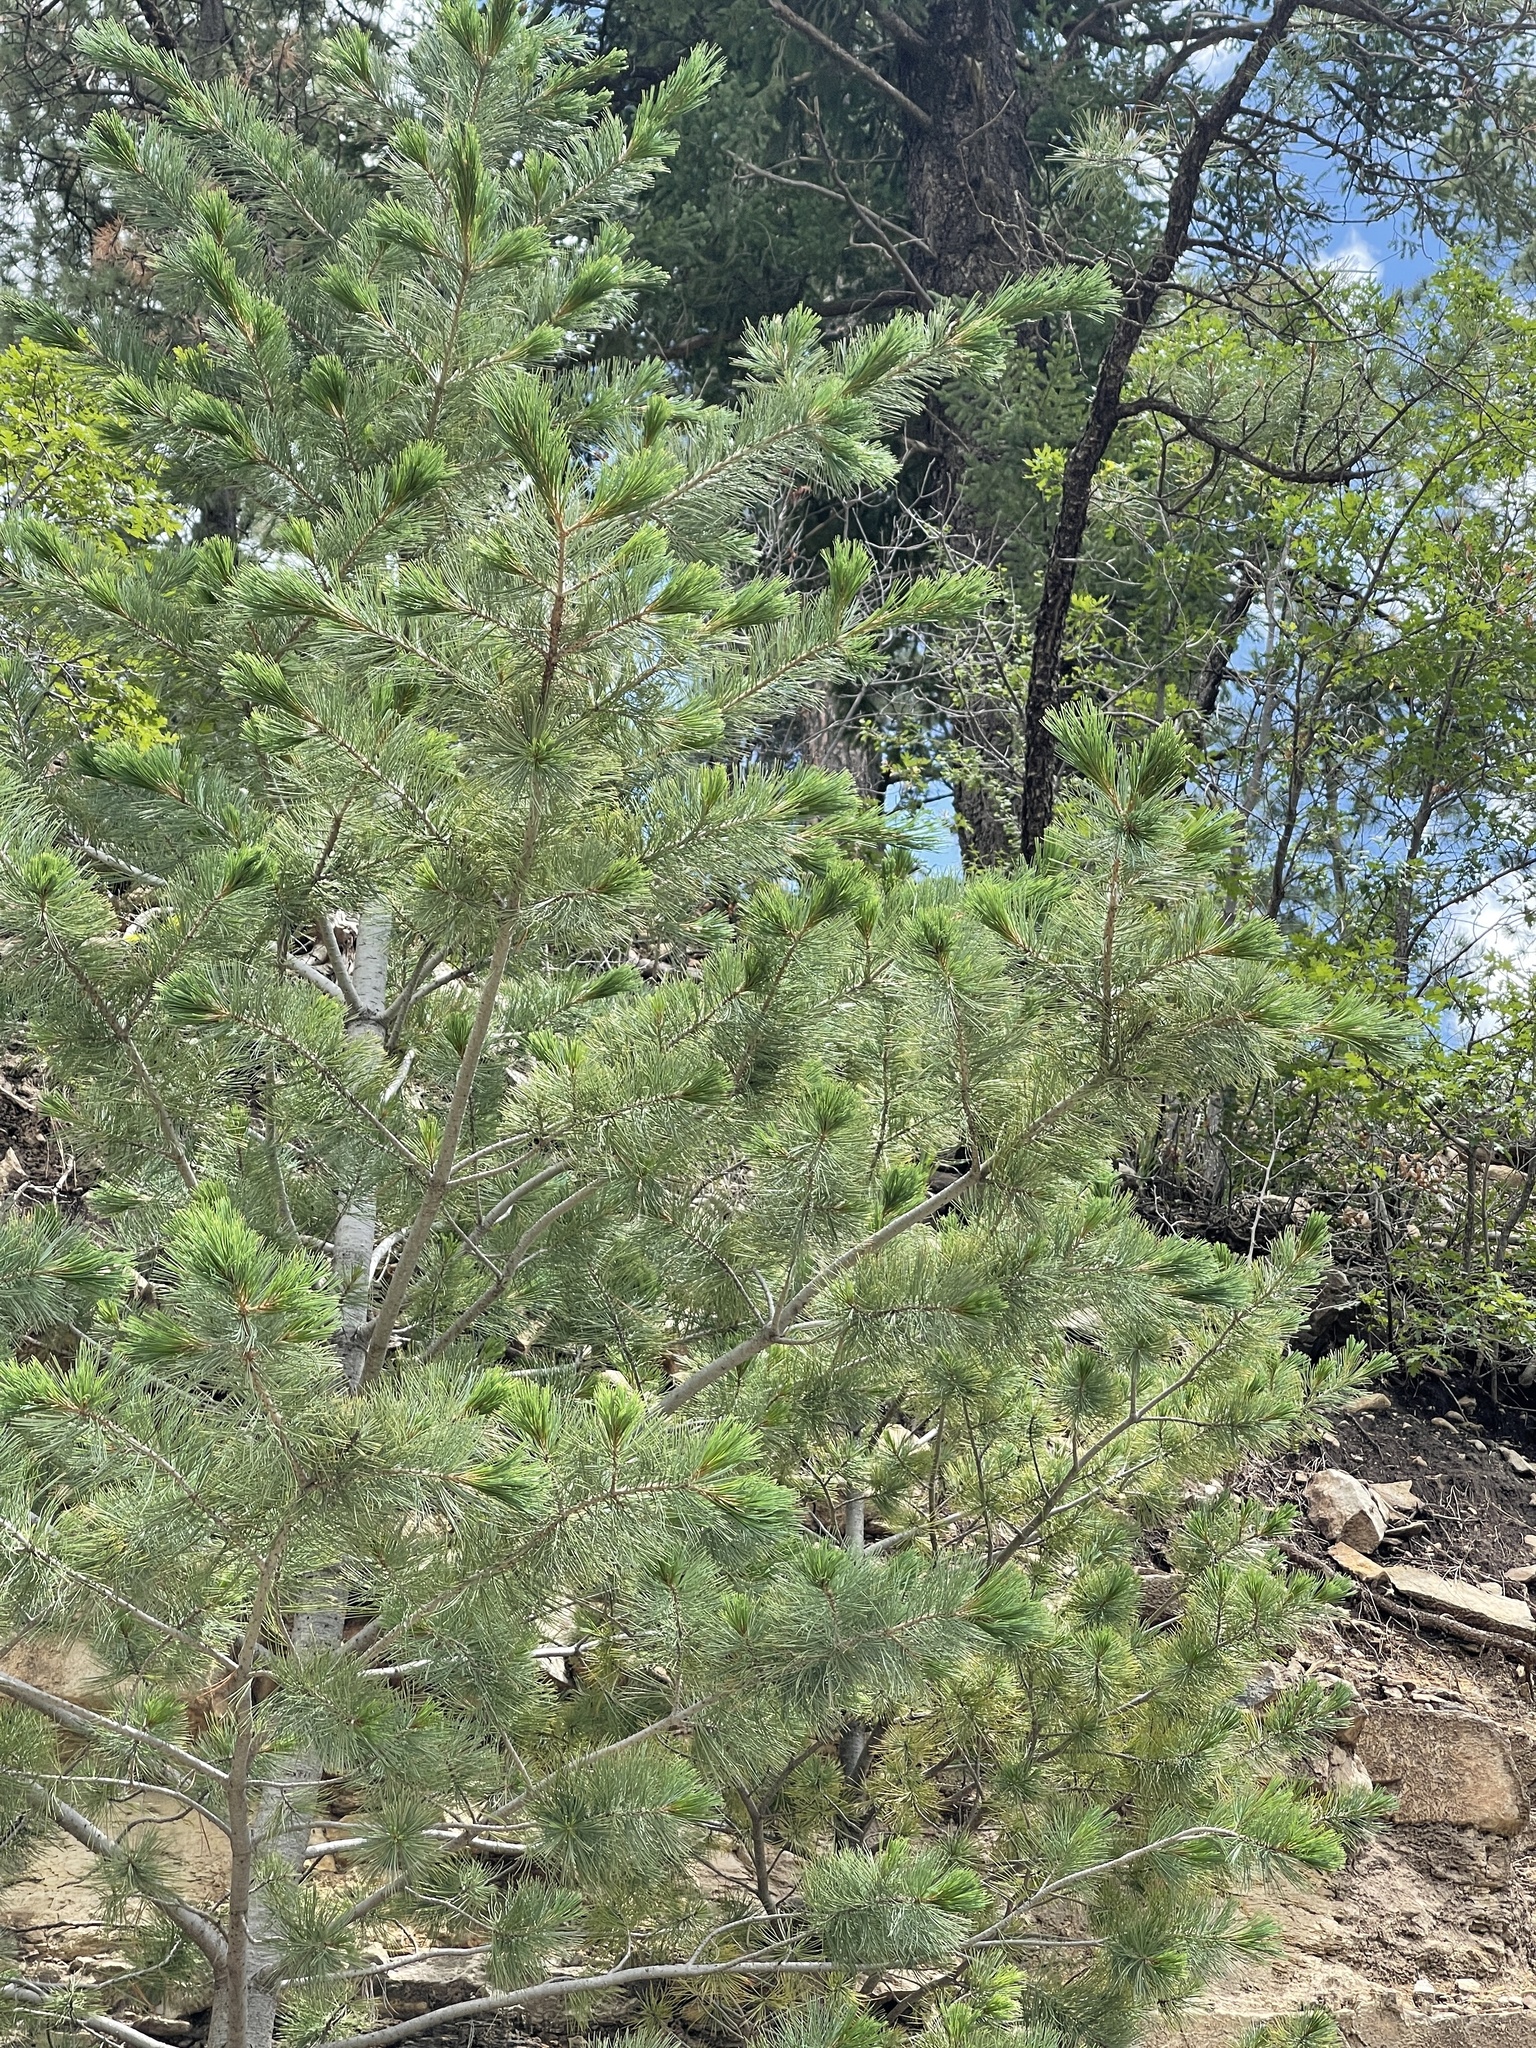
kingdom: Plantae
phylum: Tracheophyta
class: Pinopsida
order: Pinales
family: Pinaceae
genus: Pinus
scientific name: Pinus strobiformis
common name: Southwestern white pine
